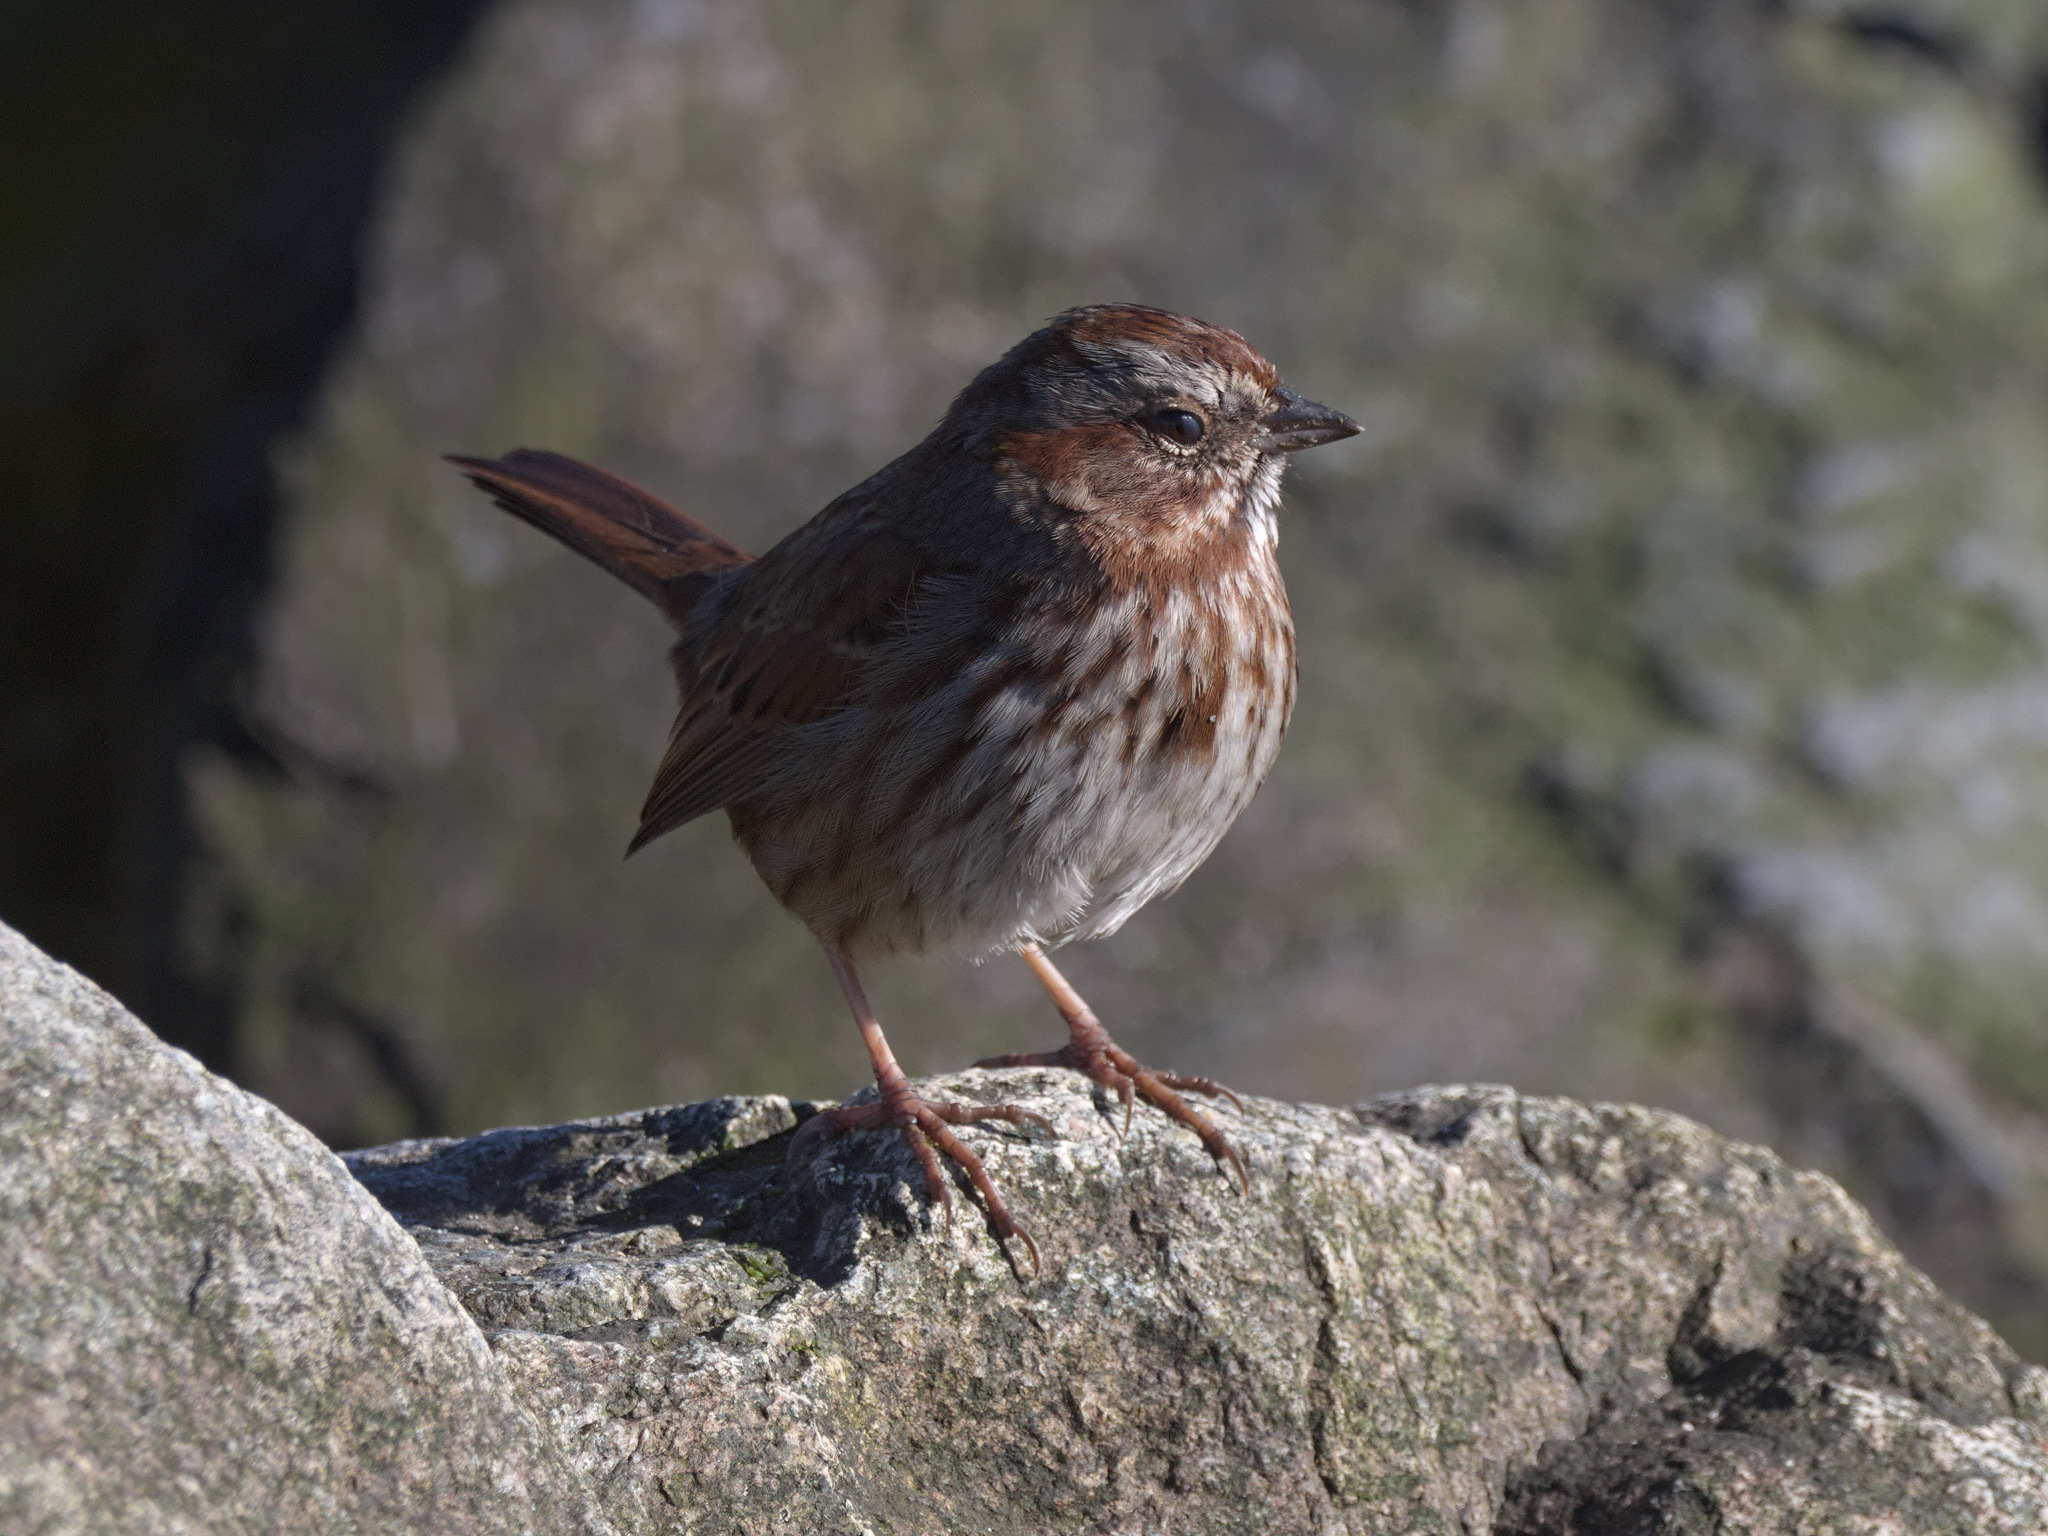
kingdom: Animalia
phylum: Chordata
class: Aves
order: Passeriformes
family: Passerellidae
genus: Melospiza
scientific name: Melospiza melodia
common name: Song sparrow
